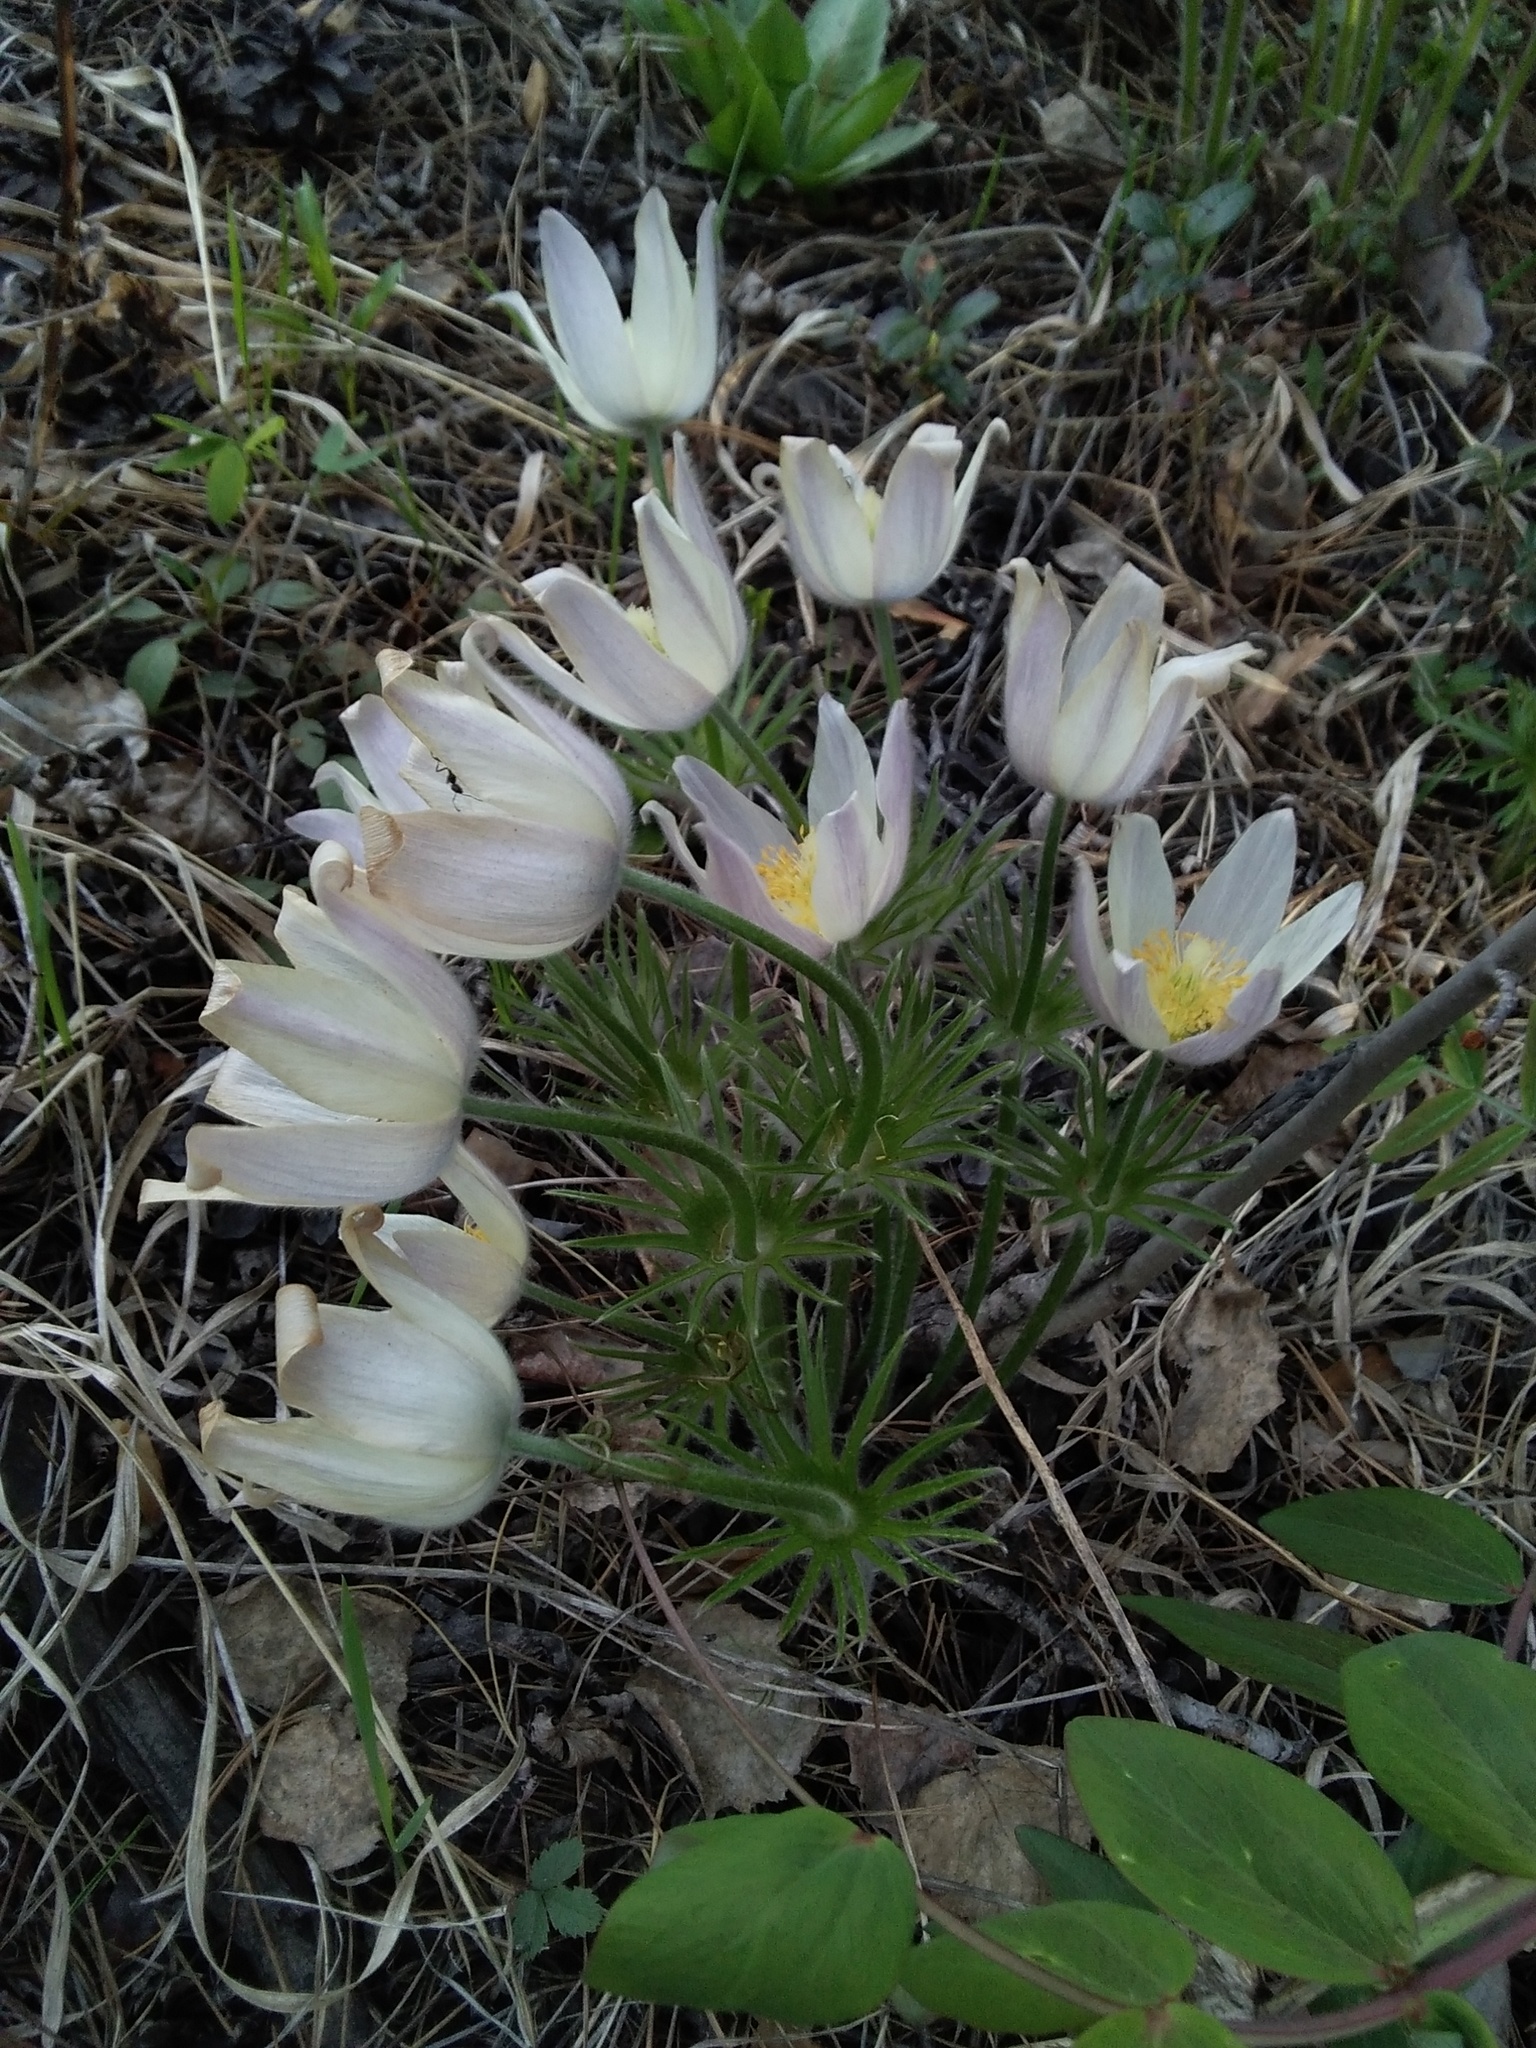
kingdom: Plantae
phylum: Tracheophyta
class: Magnoliopsida
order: Ranunculales
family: Ranunculaceae
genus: Pulsatilla
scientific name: Pulsatilla patens
